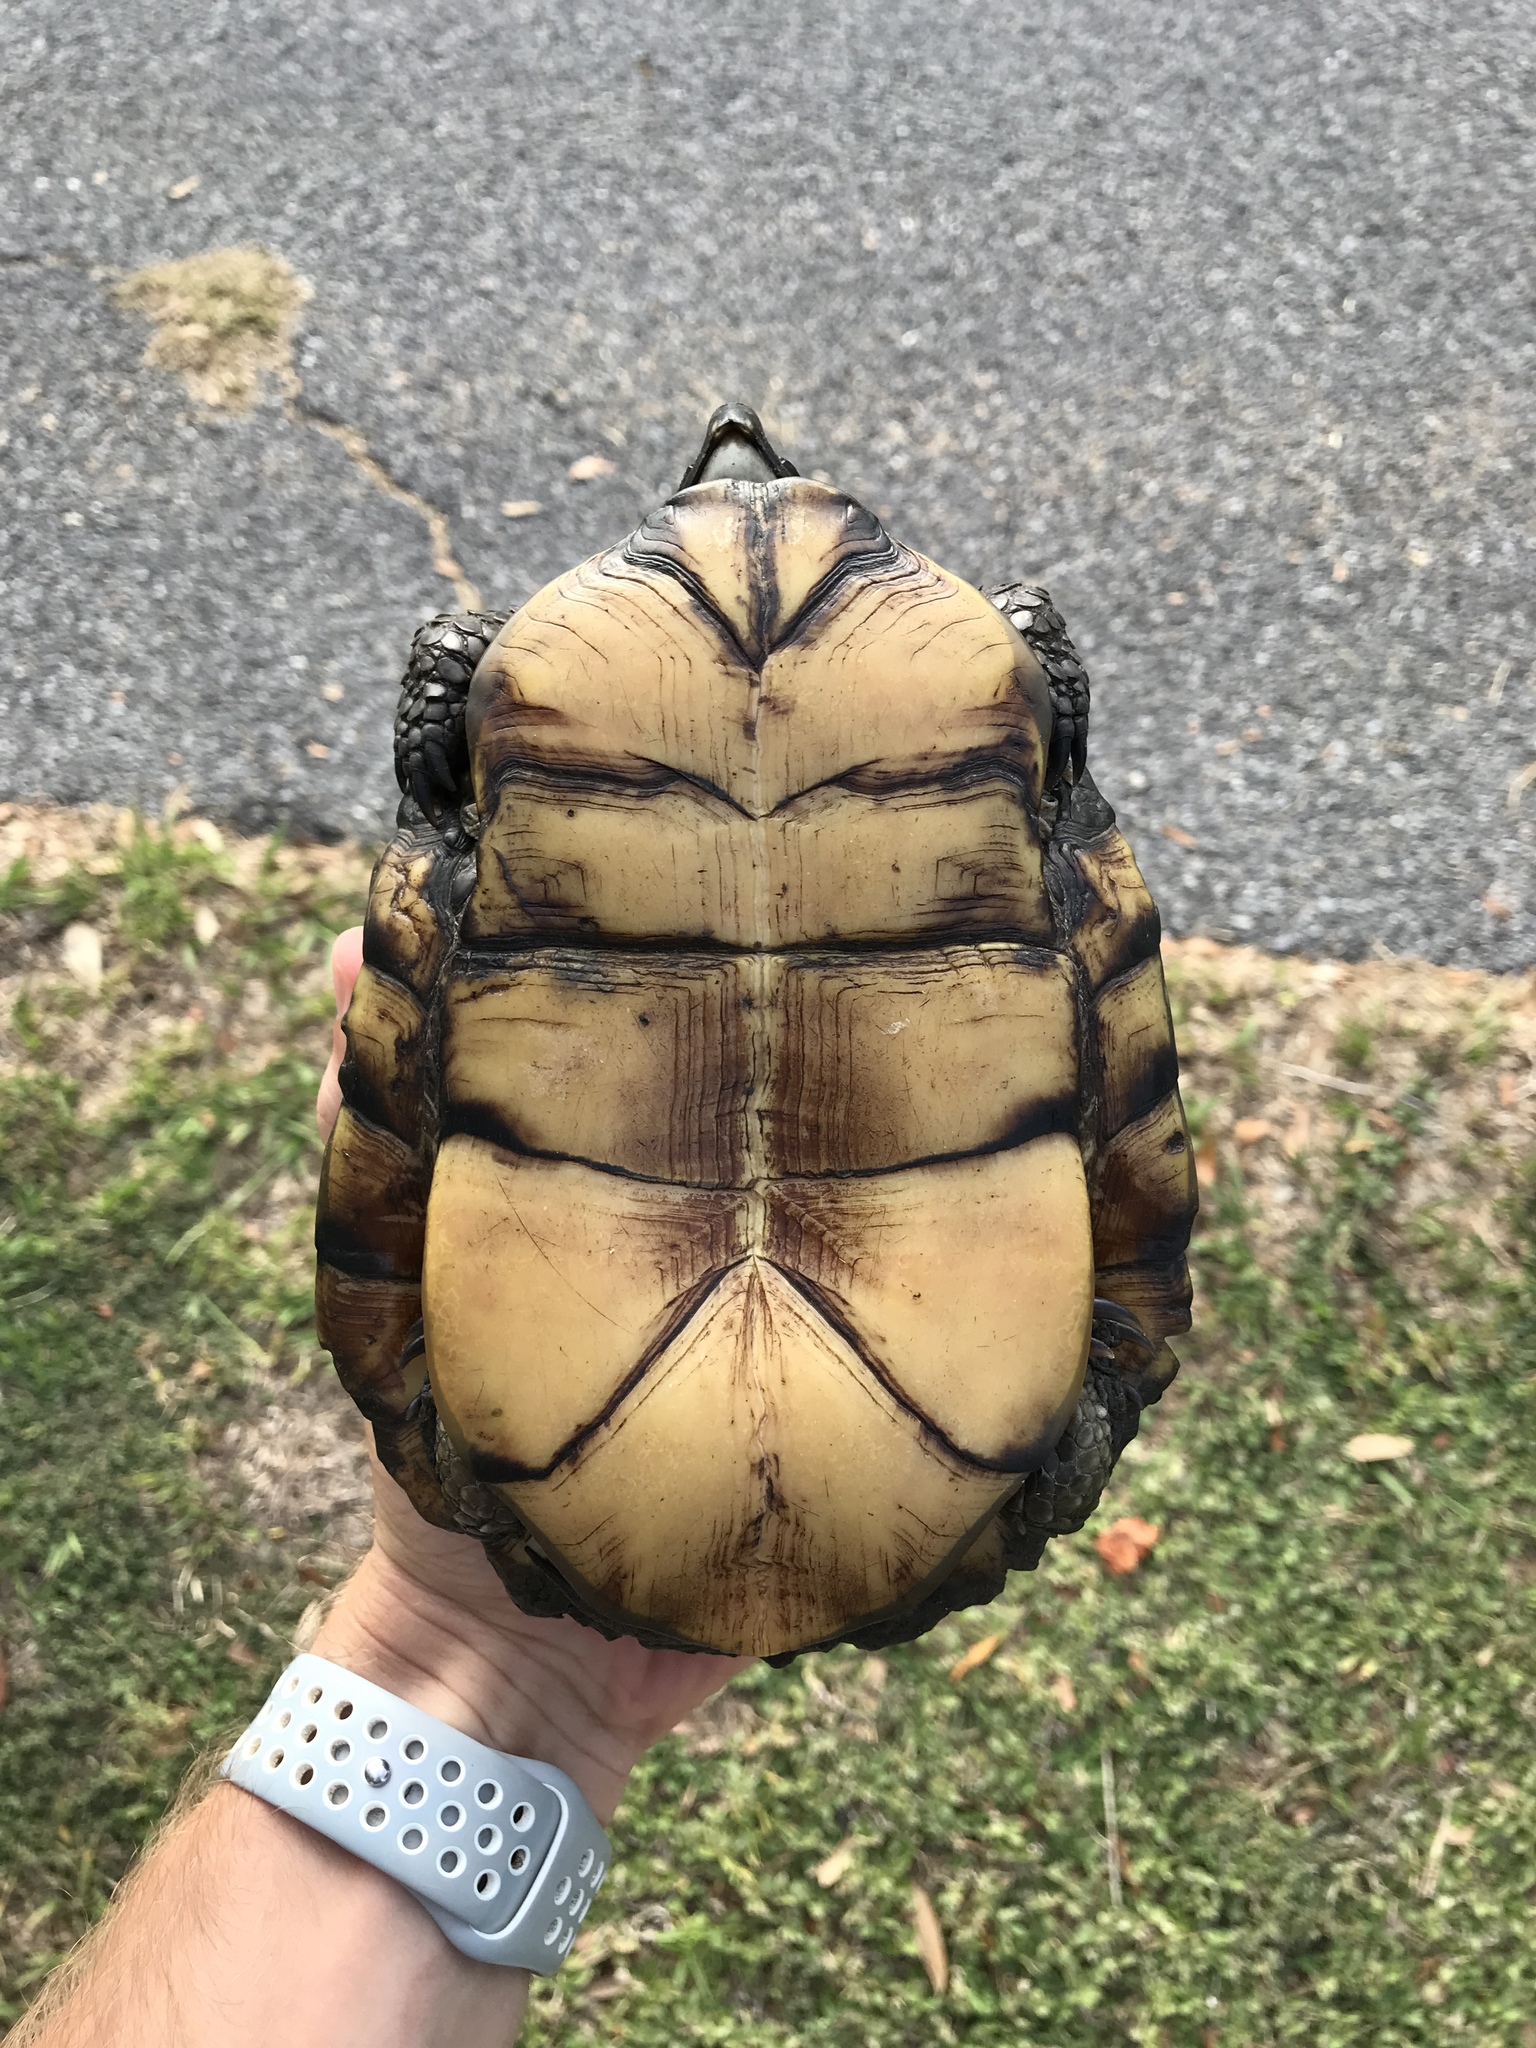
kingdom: Animalia
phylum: Chordata
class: Testudines
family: Emydidae
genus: Terrapene
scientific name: Terrapene carolina
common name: Common box turtle
